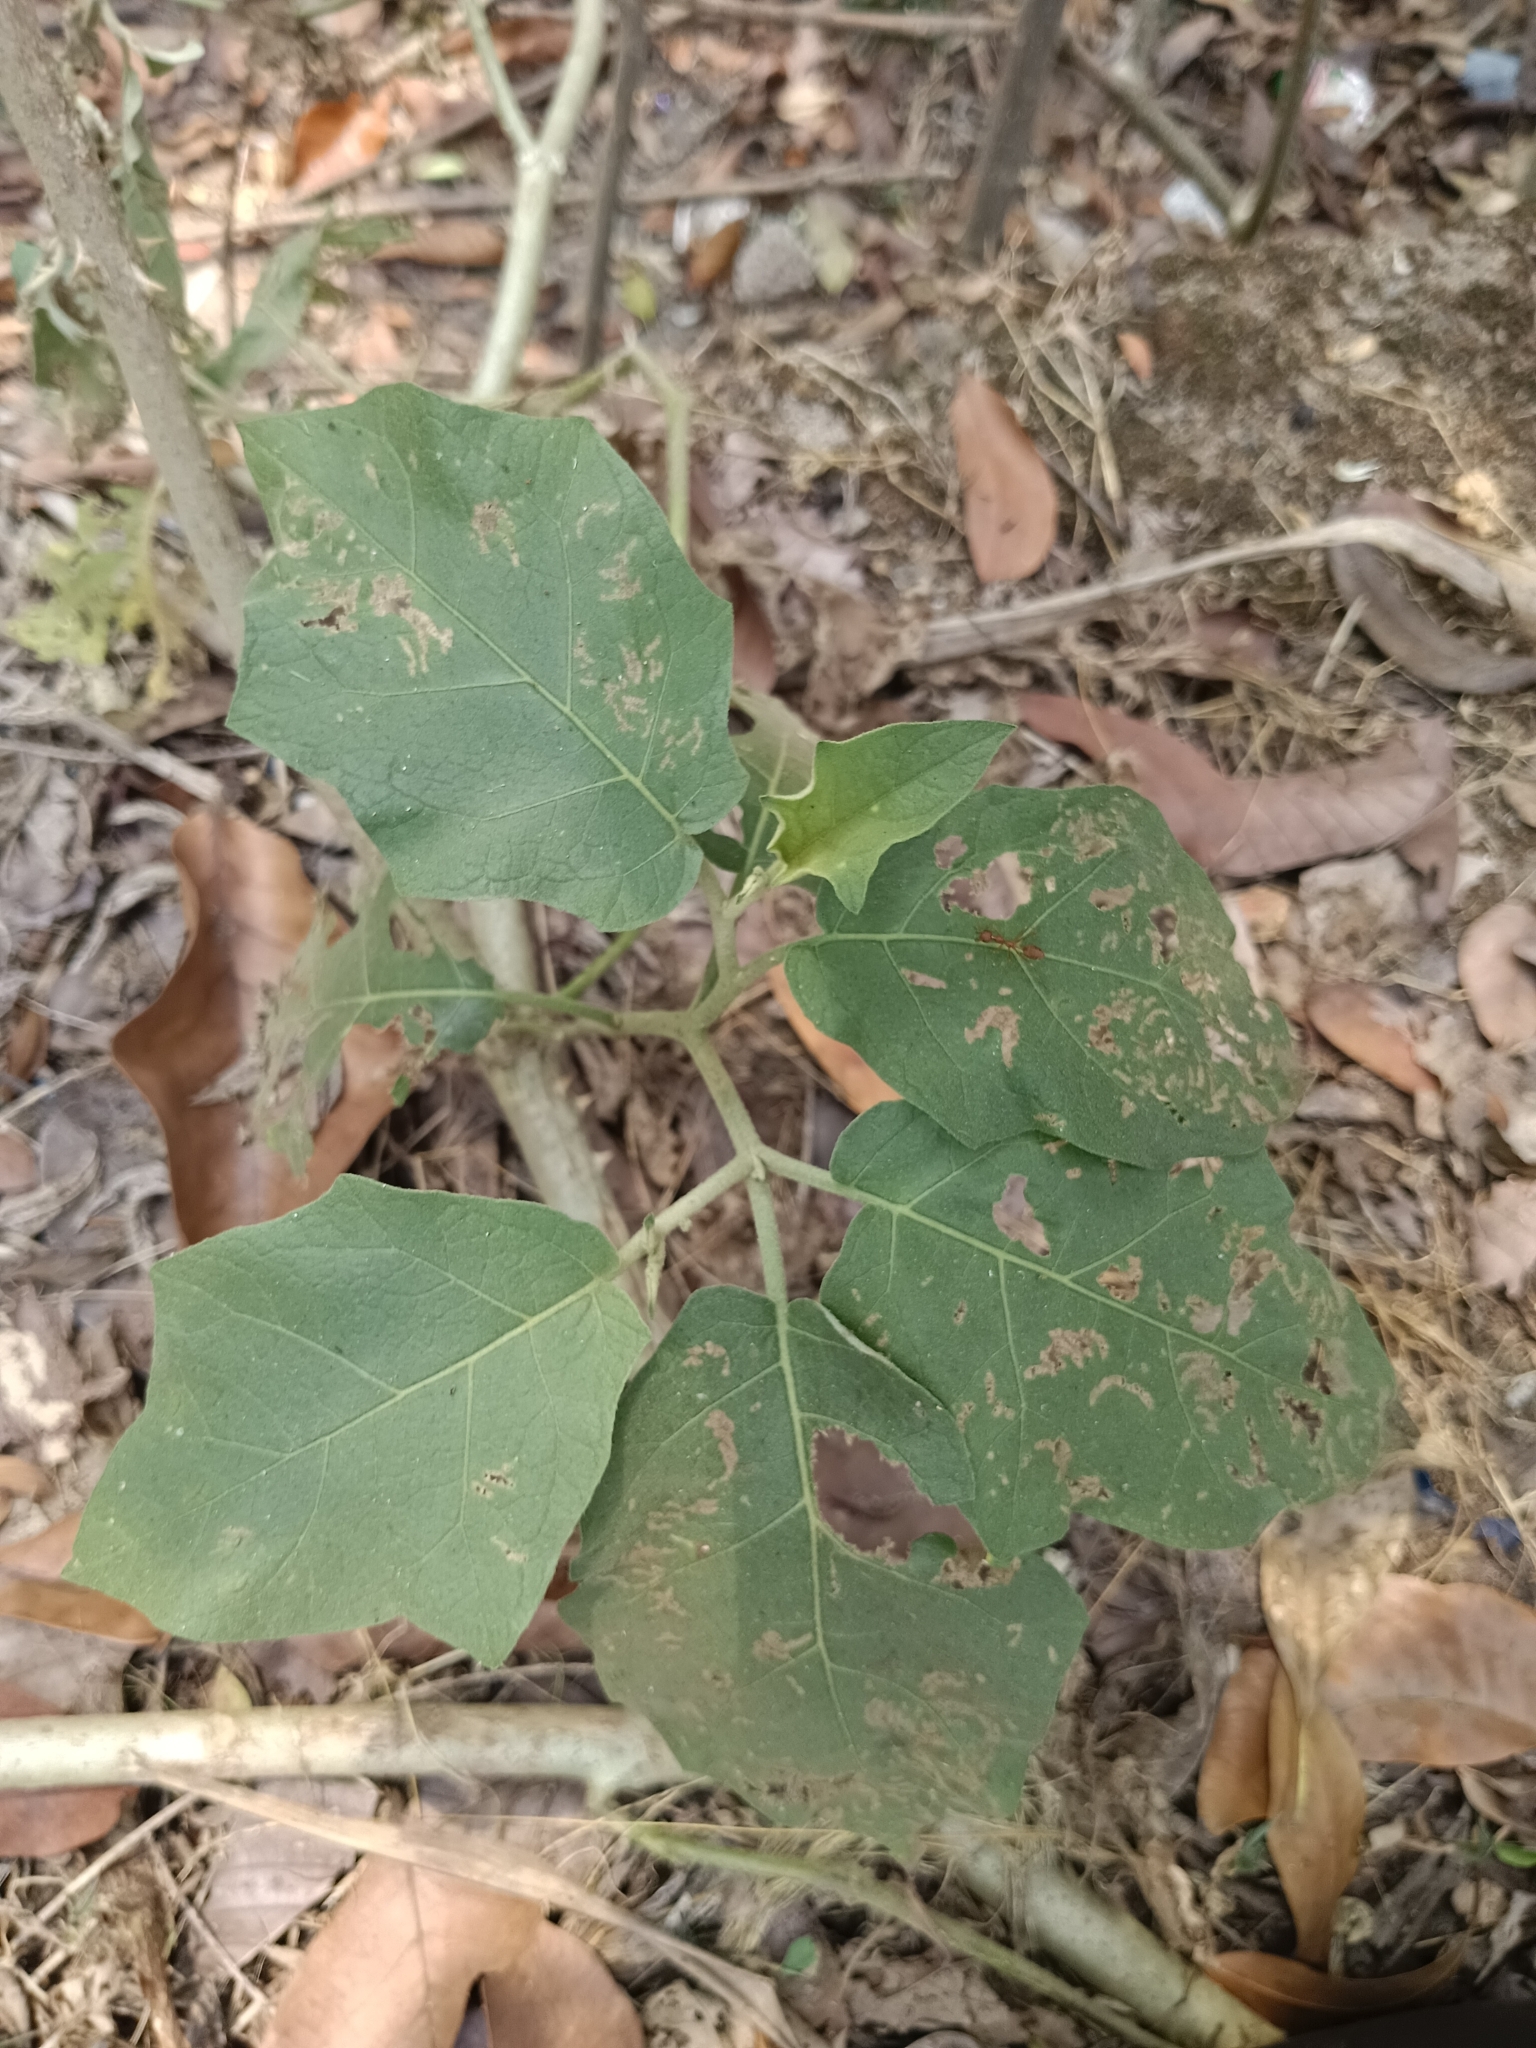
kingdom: Plantae
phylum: Tracheophyta
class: Magnoliopsida
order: Solanales
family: Solanaceae
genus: Solanum
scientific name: Solanum torvum
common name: Turkey berry
